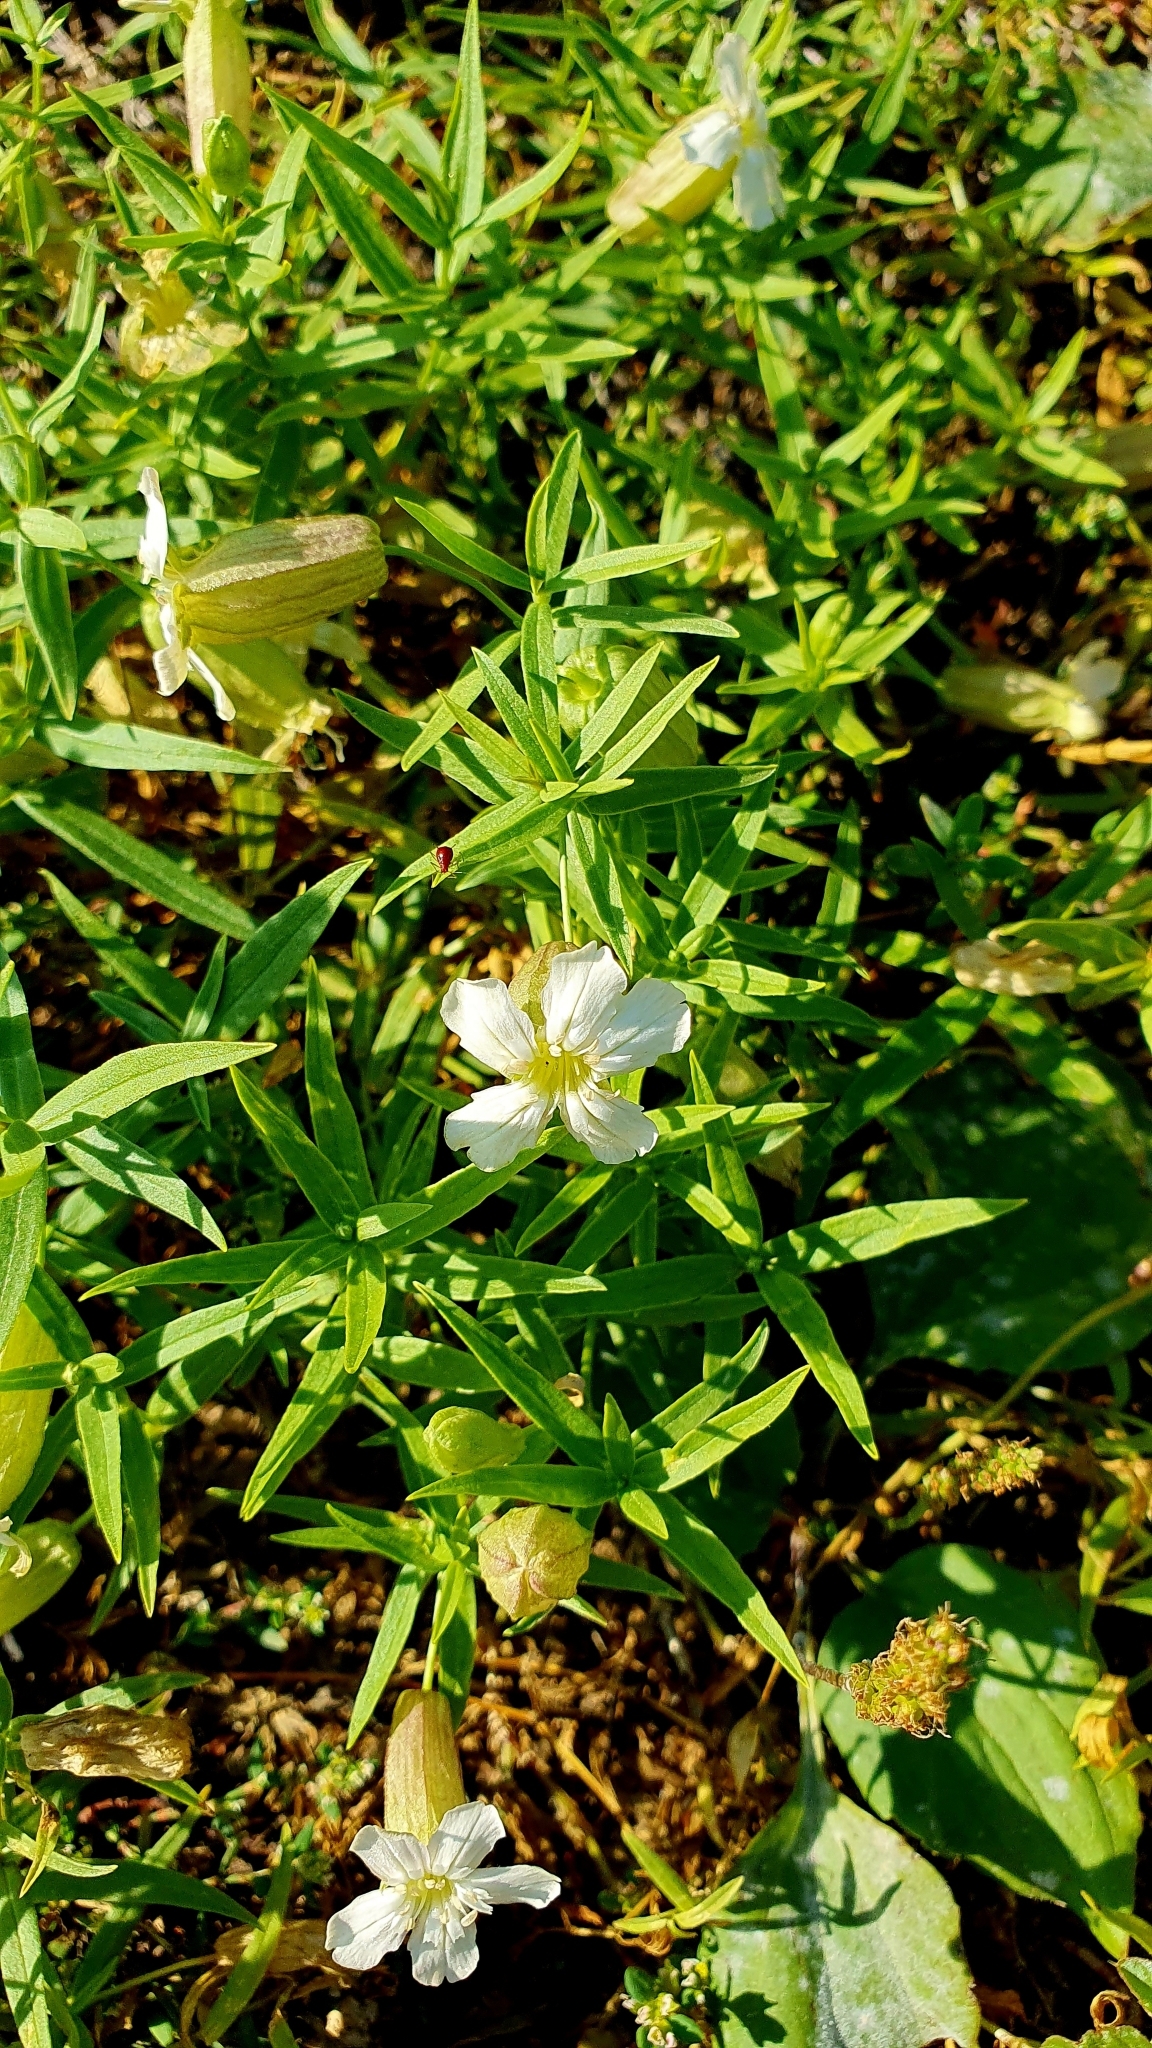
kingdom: Plantae
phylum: Tracheophyta
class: Magnoliopsida
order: Caryophyllales
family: Caryophyllaceae
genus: Silene
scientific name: Silene procumbens
